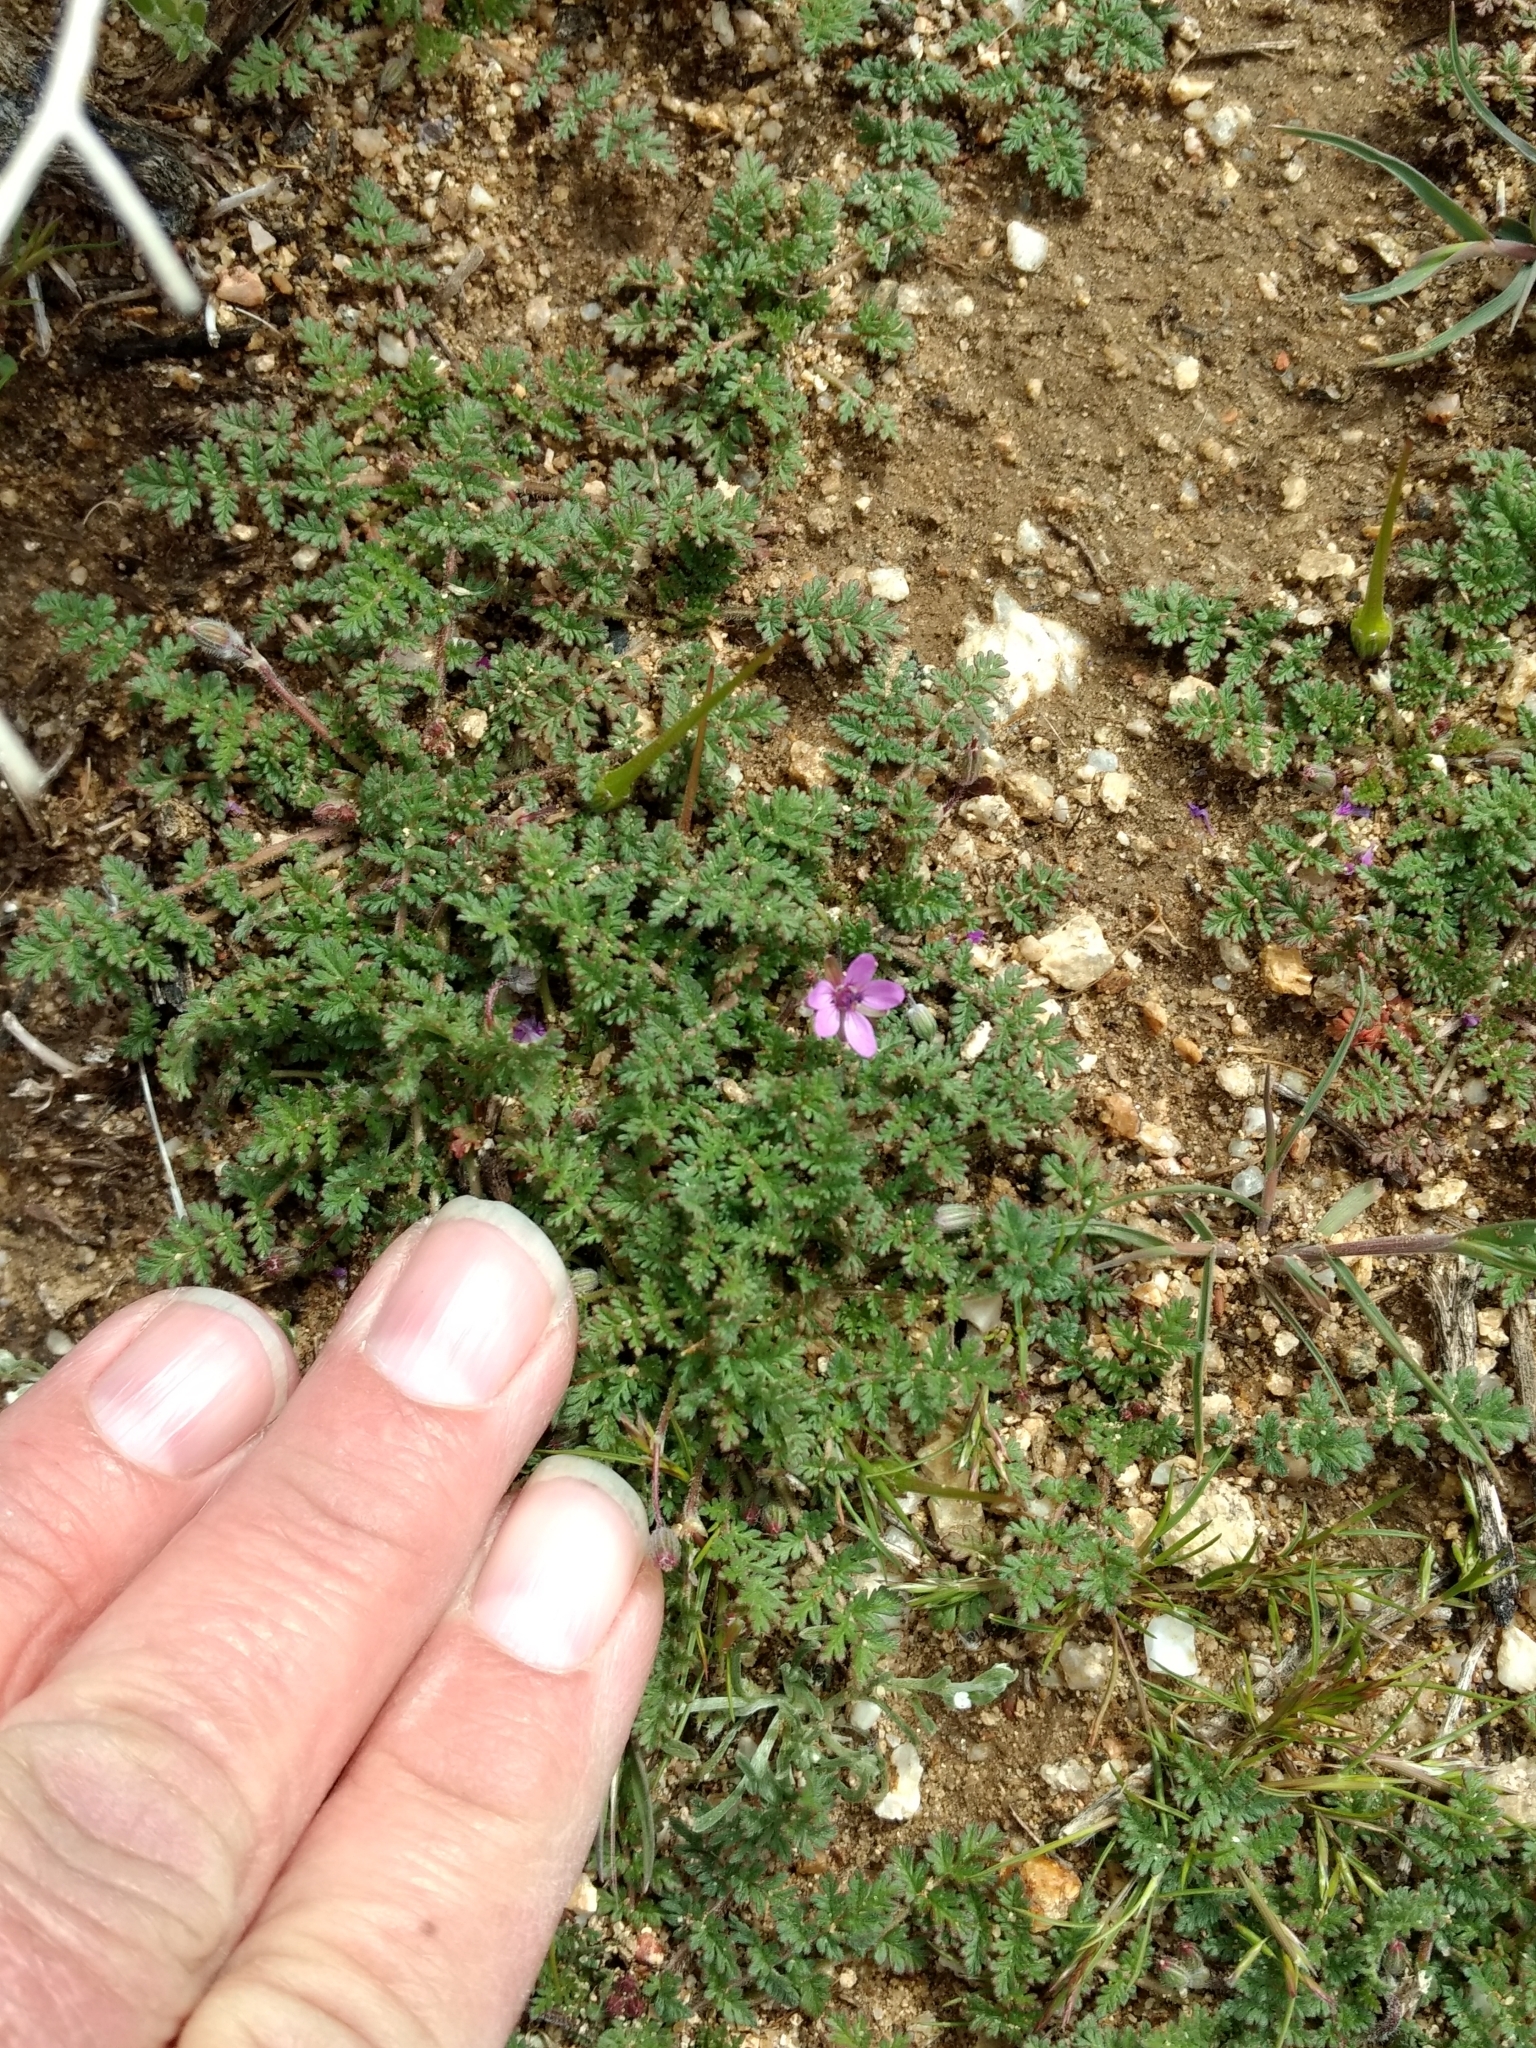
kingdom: Plantae
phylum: Tracheophyta
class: Magnoliopsida
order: Geraniales
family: Geraniaceae
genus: Erodium
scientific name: Erodium cicutarium
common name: Common stork's-bill
